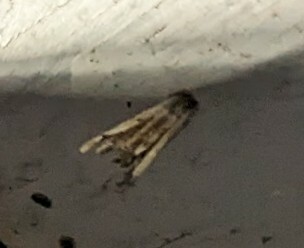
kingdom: Animalia
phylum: Arthropoda
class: Insecta
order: Lepidoptera
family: Psychidae
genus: Psyche
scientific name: Psyche casta
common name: Common sweep
